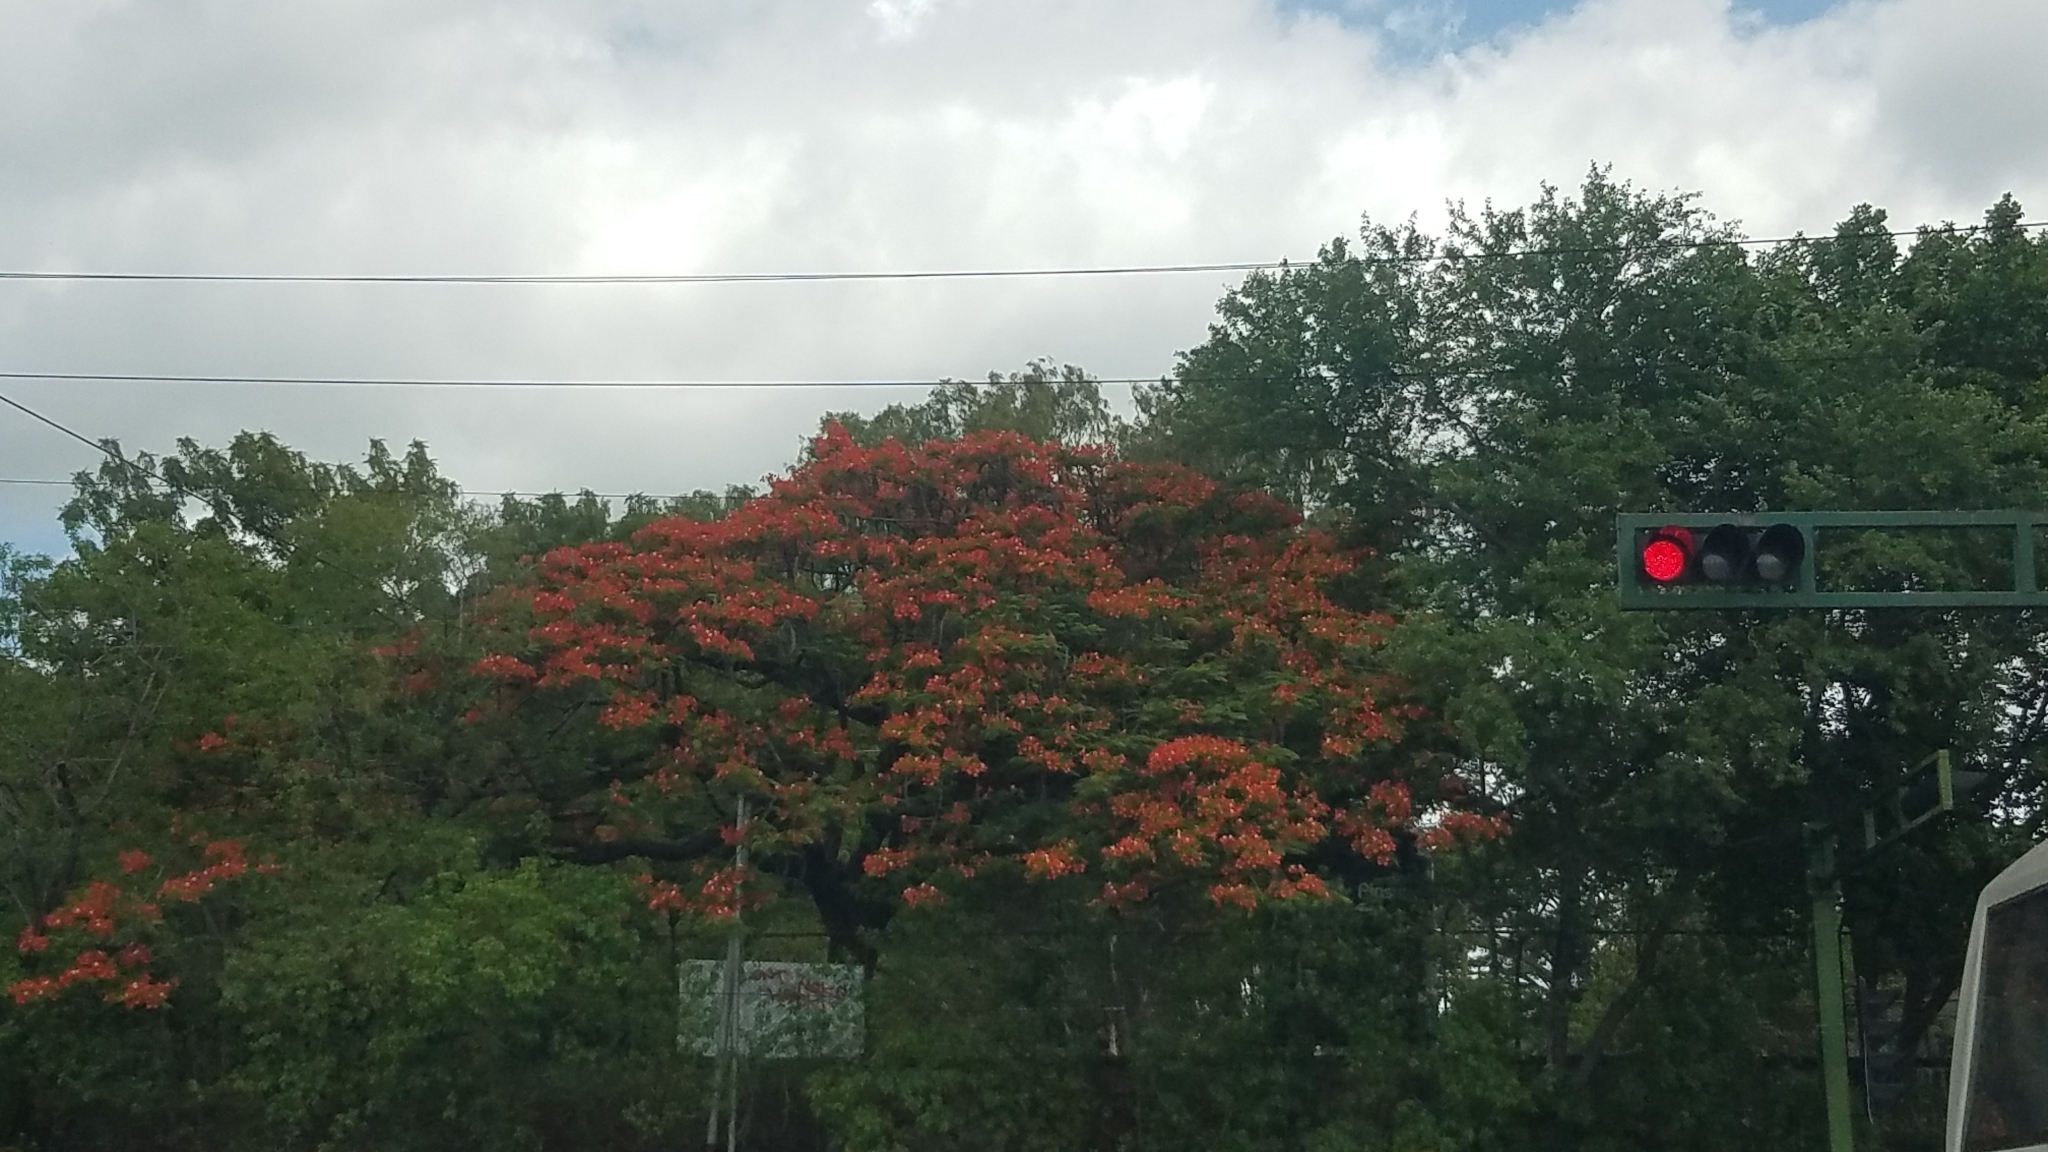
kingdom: Plantae
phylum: Tracheophyta
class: Magnoliopsida
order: Fabales
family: Fabaceae
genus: Delonix
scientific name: Delonix regia
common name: Royal poinciana
